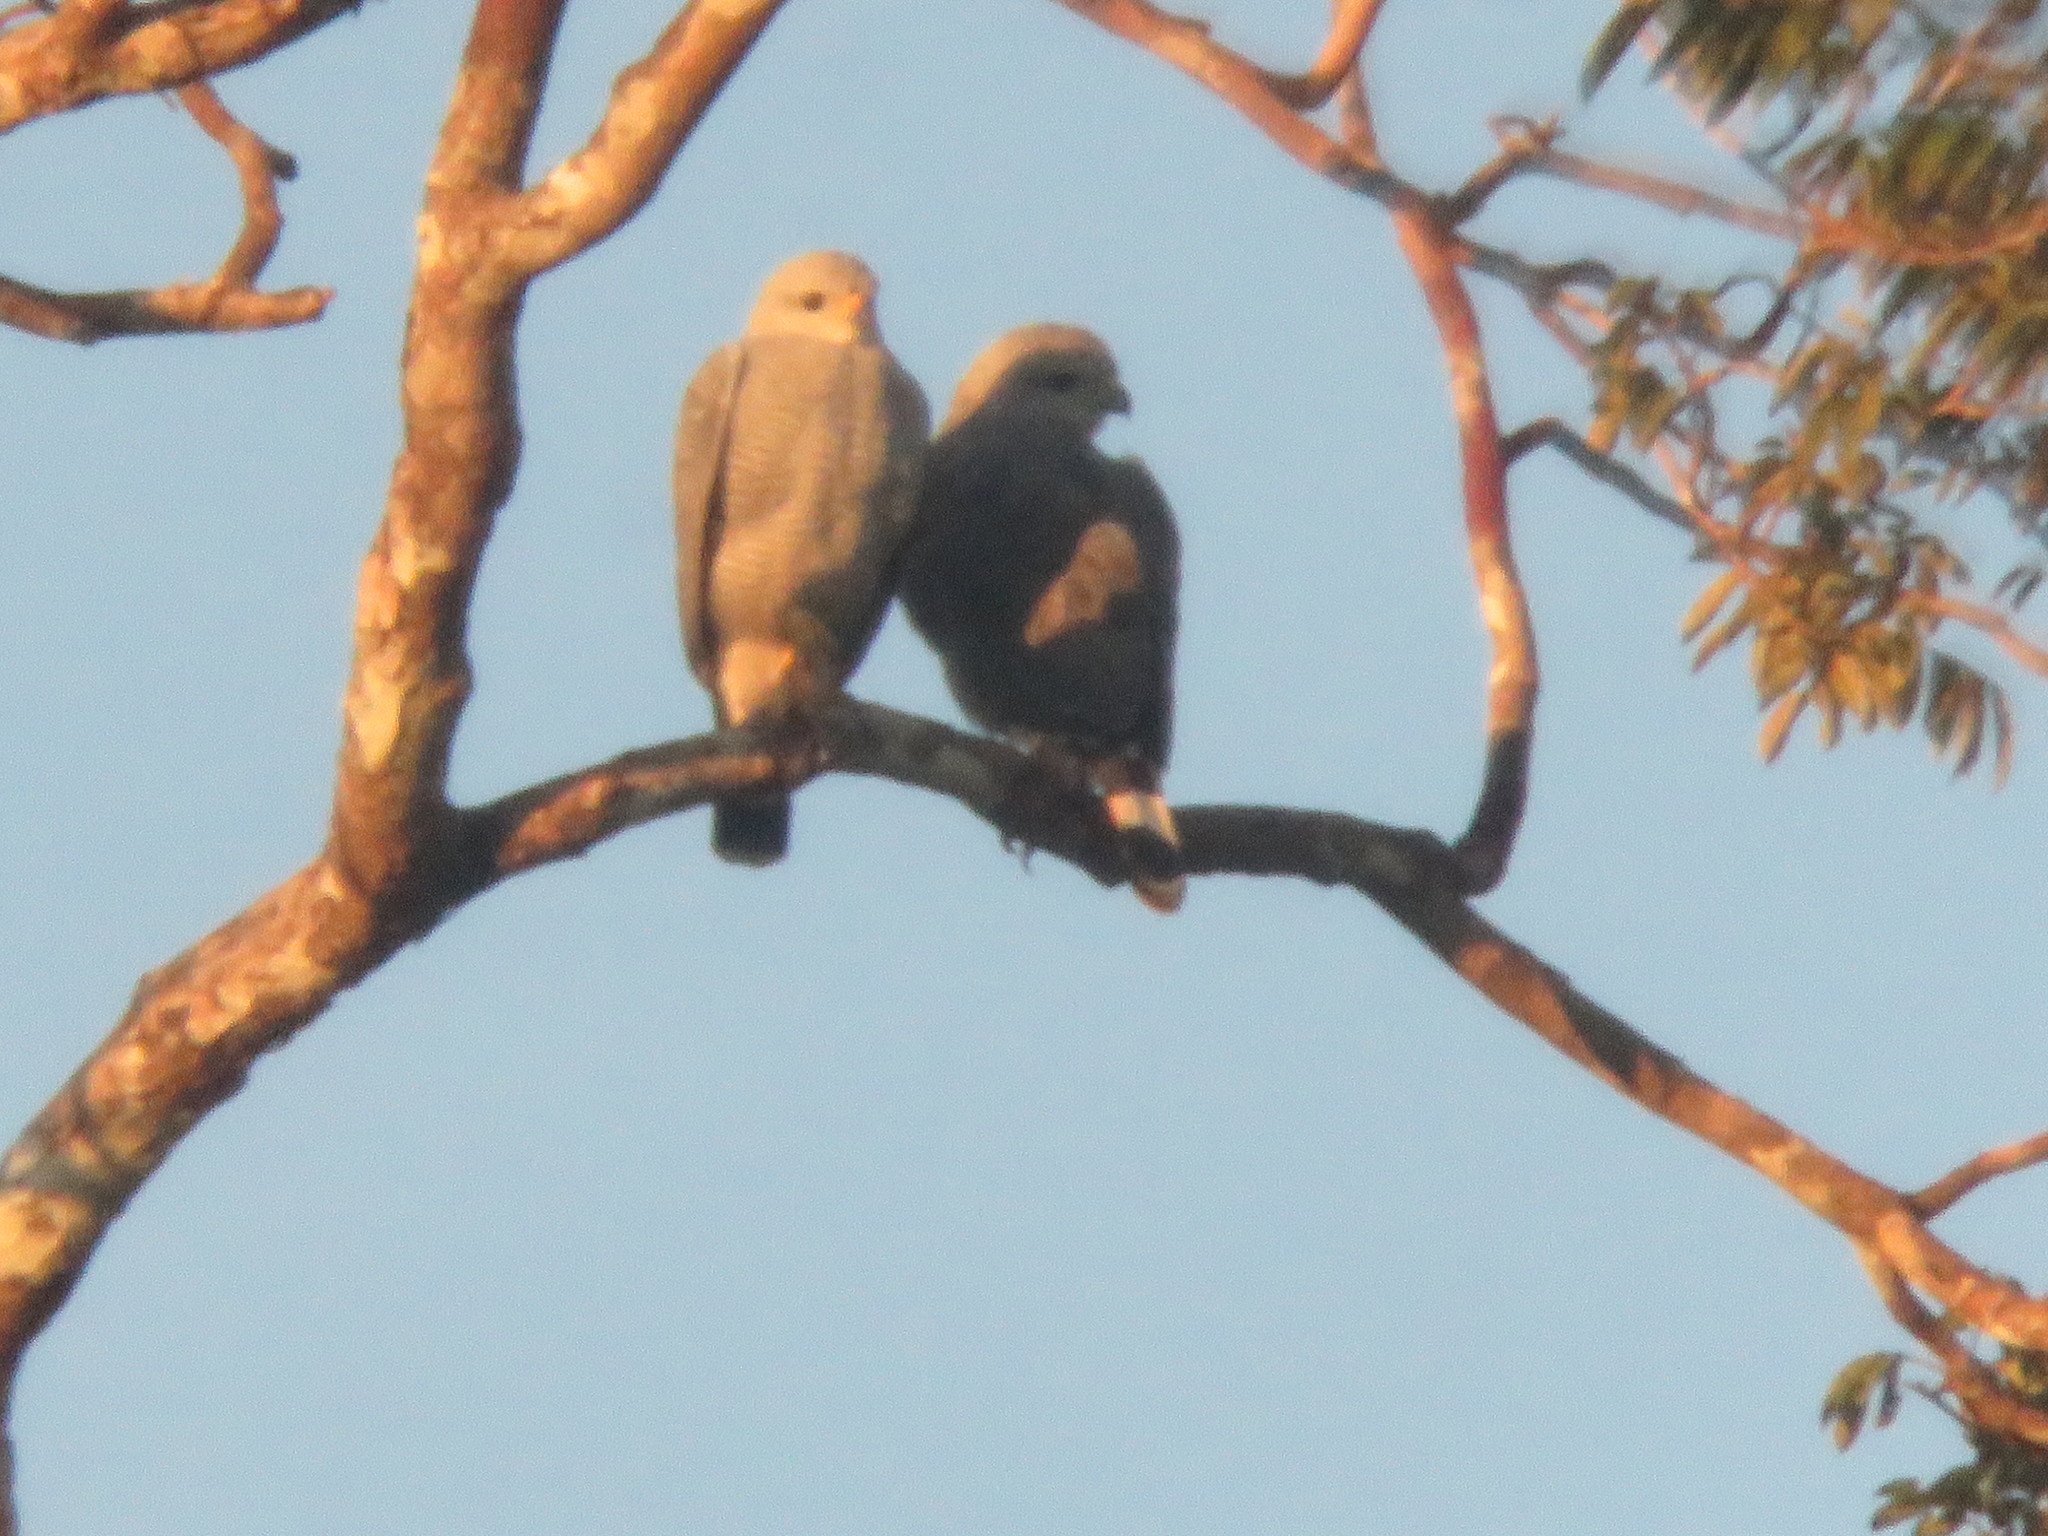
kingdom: Animalia
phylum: Chordata
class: Aves
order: Accipitriformes
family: Accipitridae
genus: Buteo
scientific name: Buteo nitidus
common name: Grey-lined hawk
